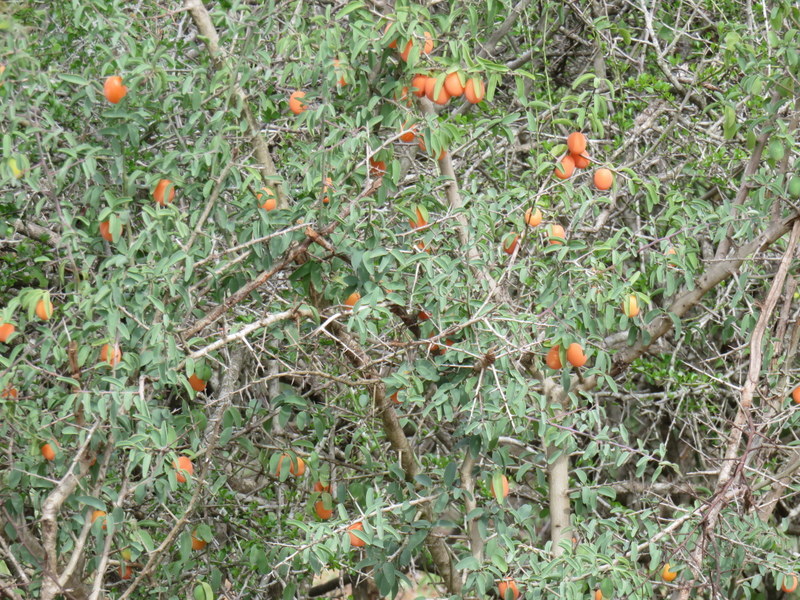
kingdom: Plantae
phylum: Tracheophyta
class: Magnoliopsida
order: Santalales
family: Ximeniaceae
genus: Ximenia
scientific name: Ximenia americana
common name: Tallowwood
